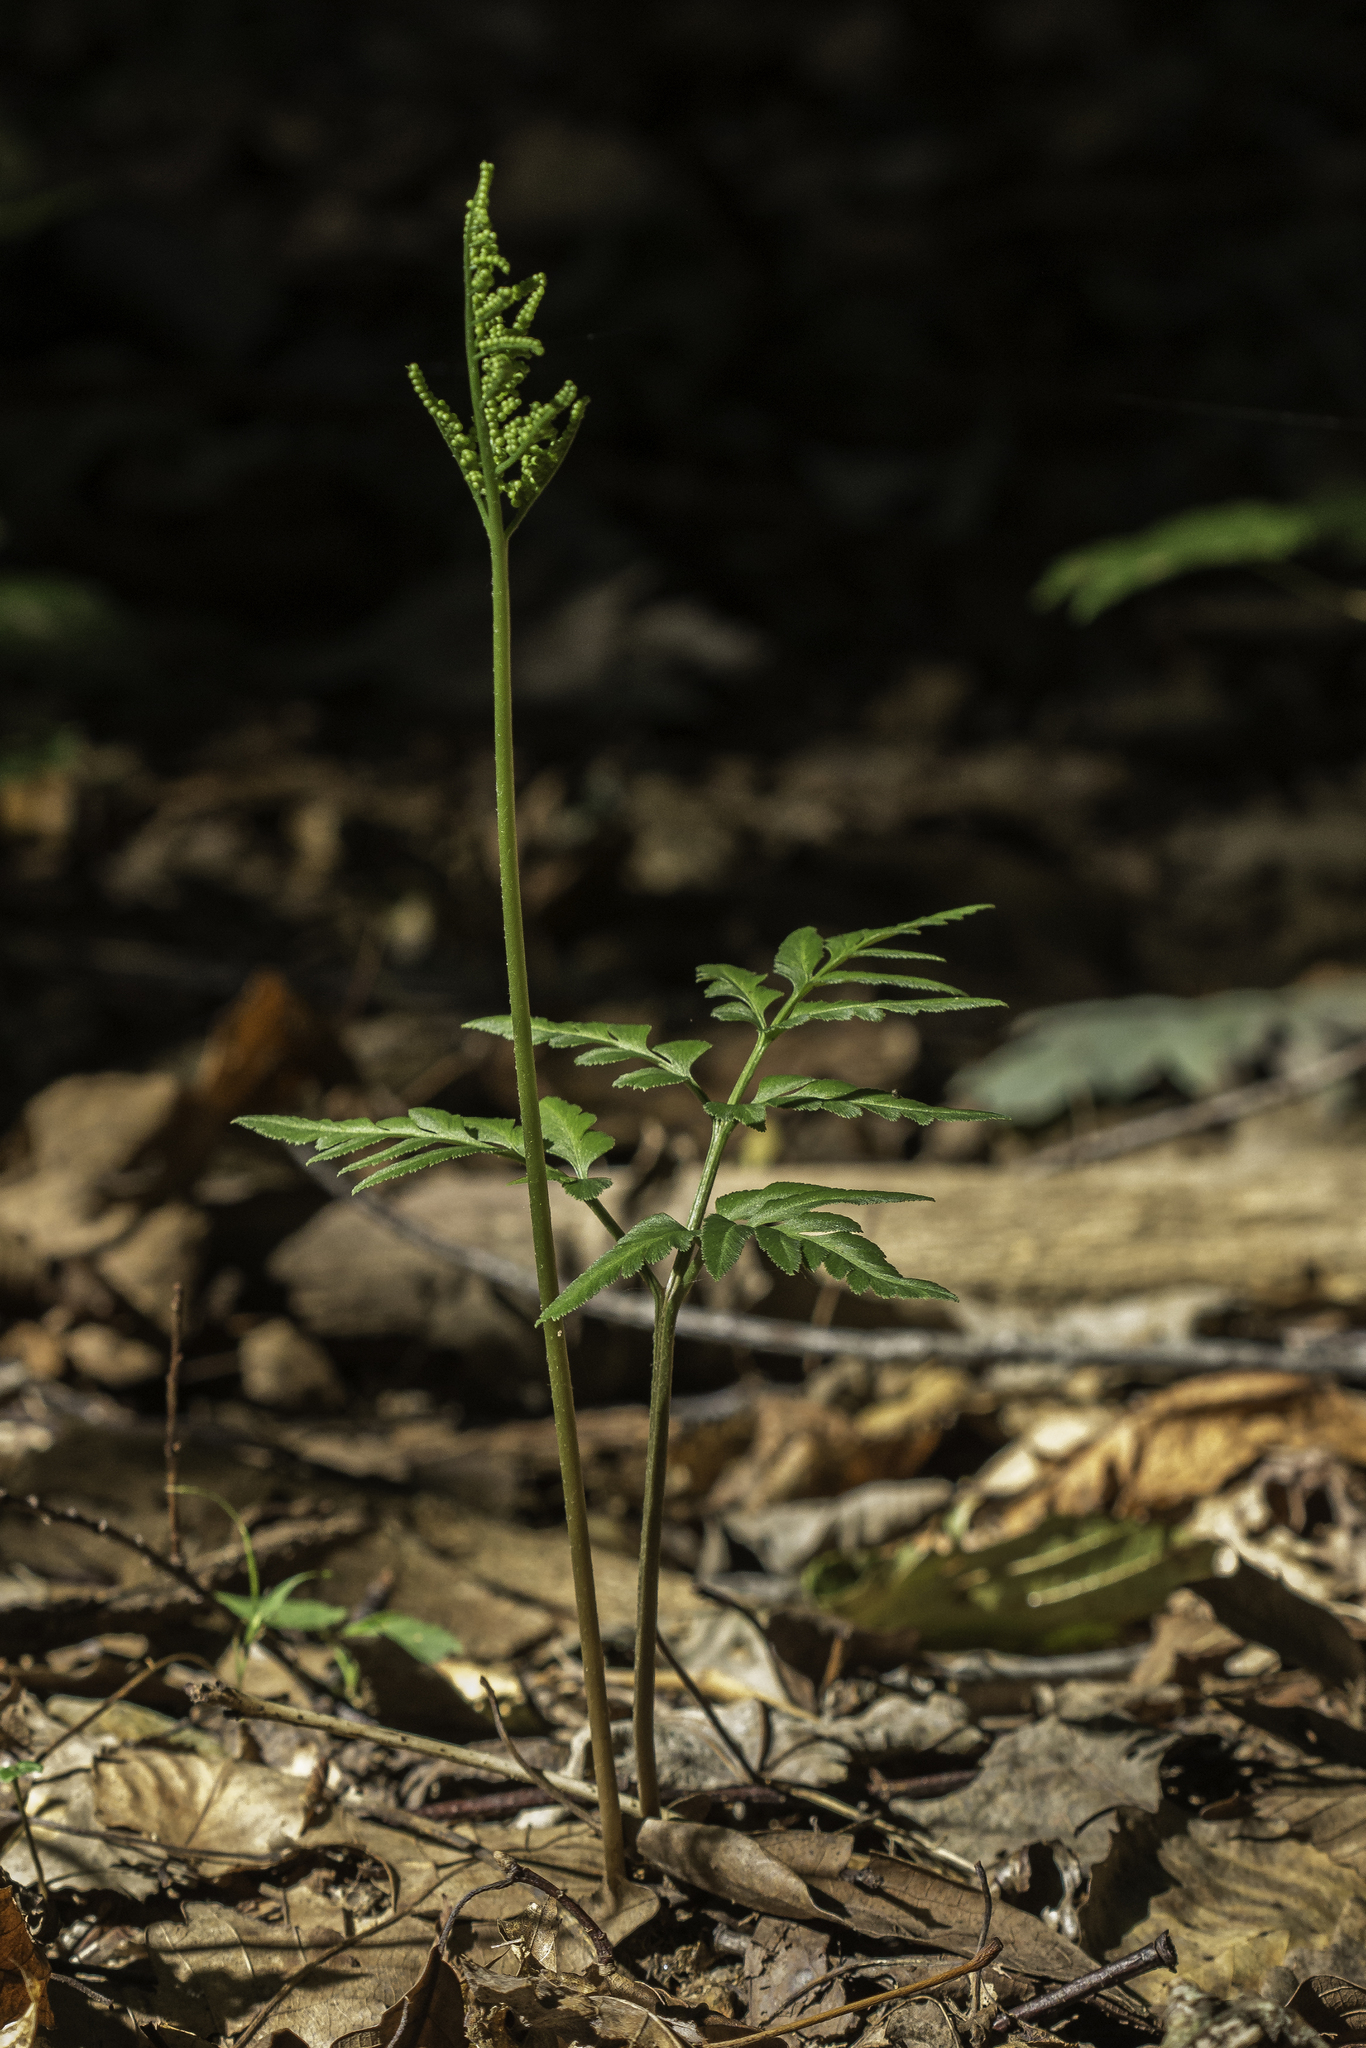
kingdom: Plantae
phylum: Tracheophyta
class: Polypodiopsida
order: Ophioglossales
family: Ophioglossaceae
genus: Sceptridium
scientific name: Sceptridium dissectum
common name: Cut-leaved grapefern
